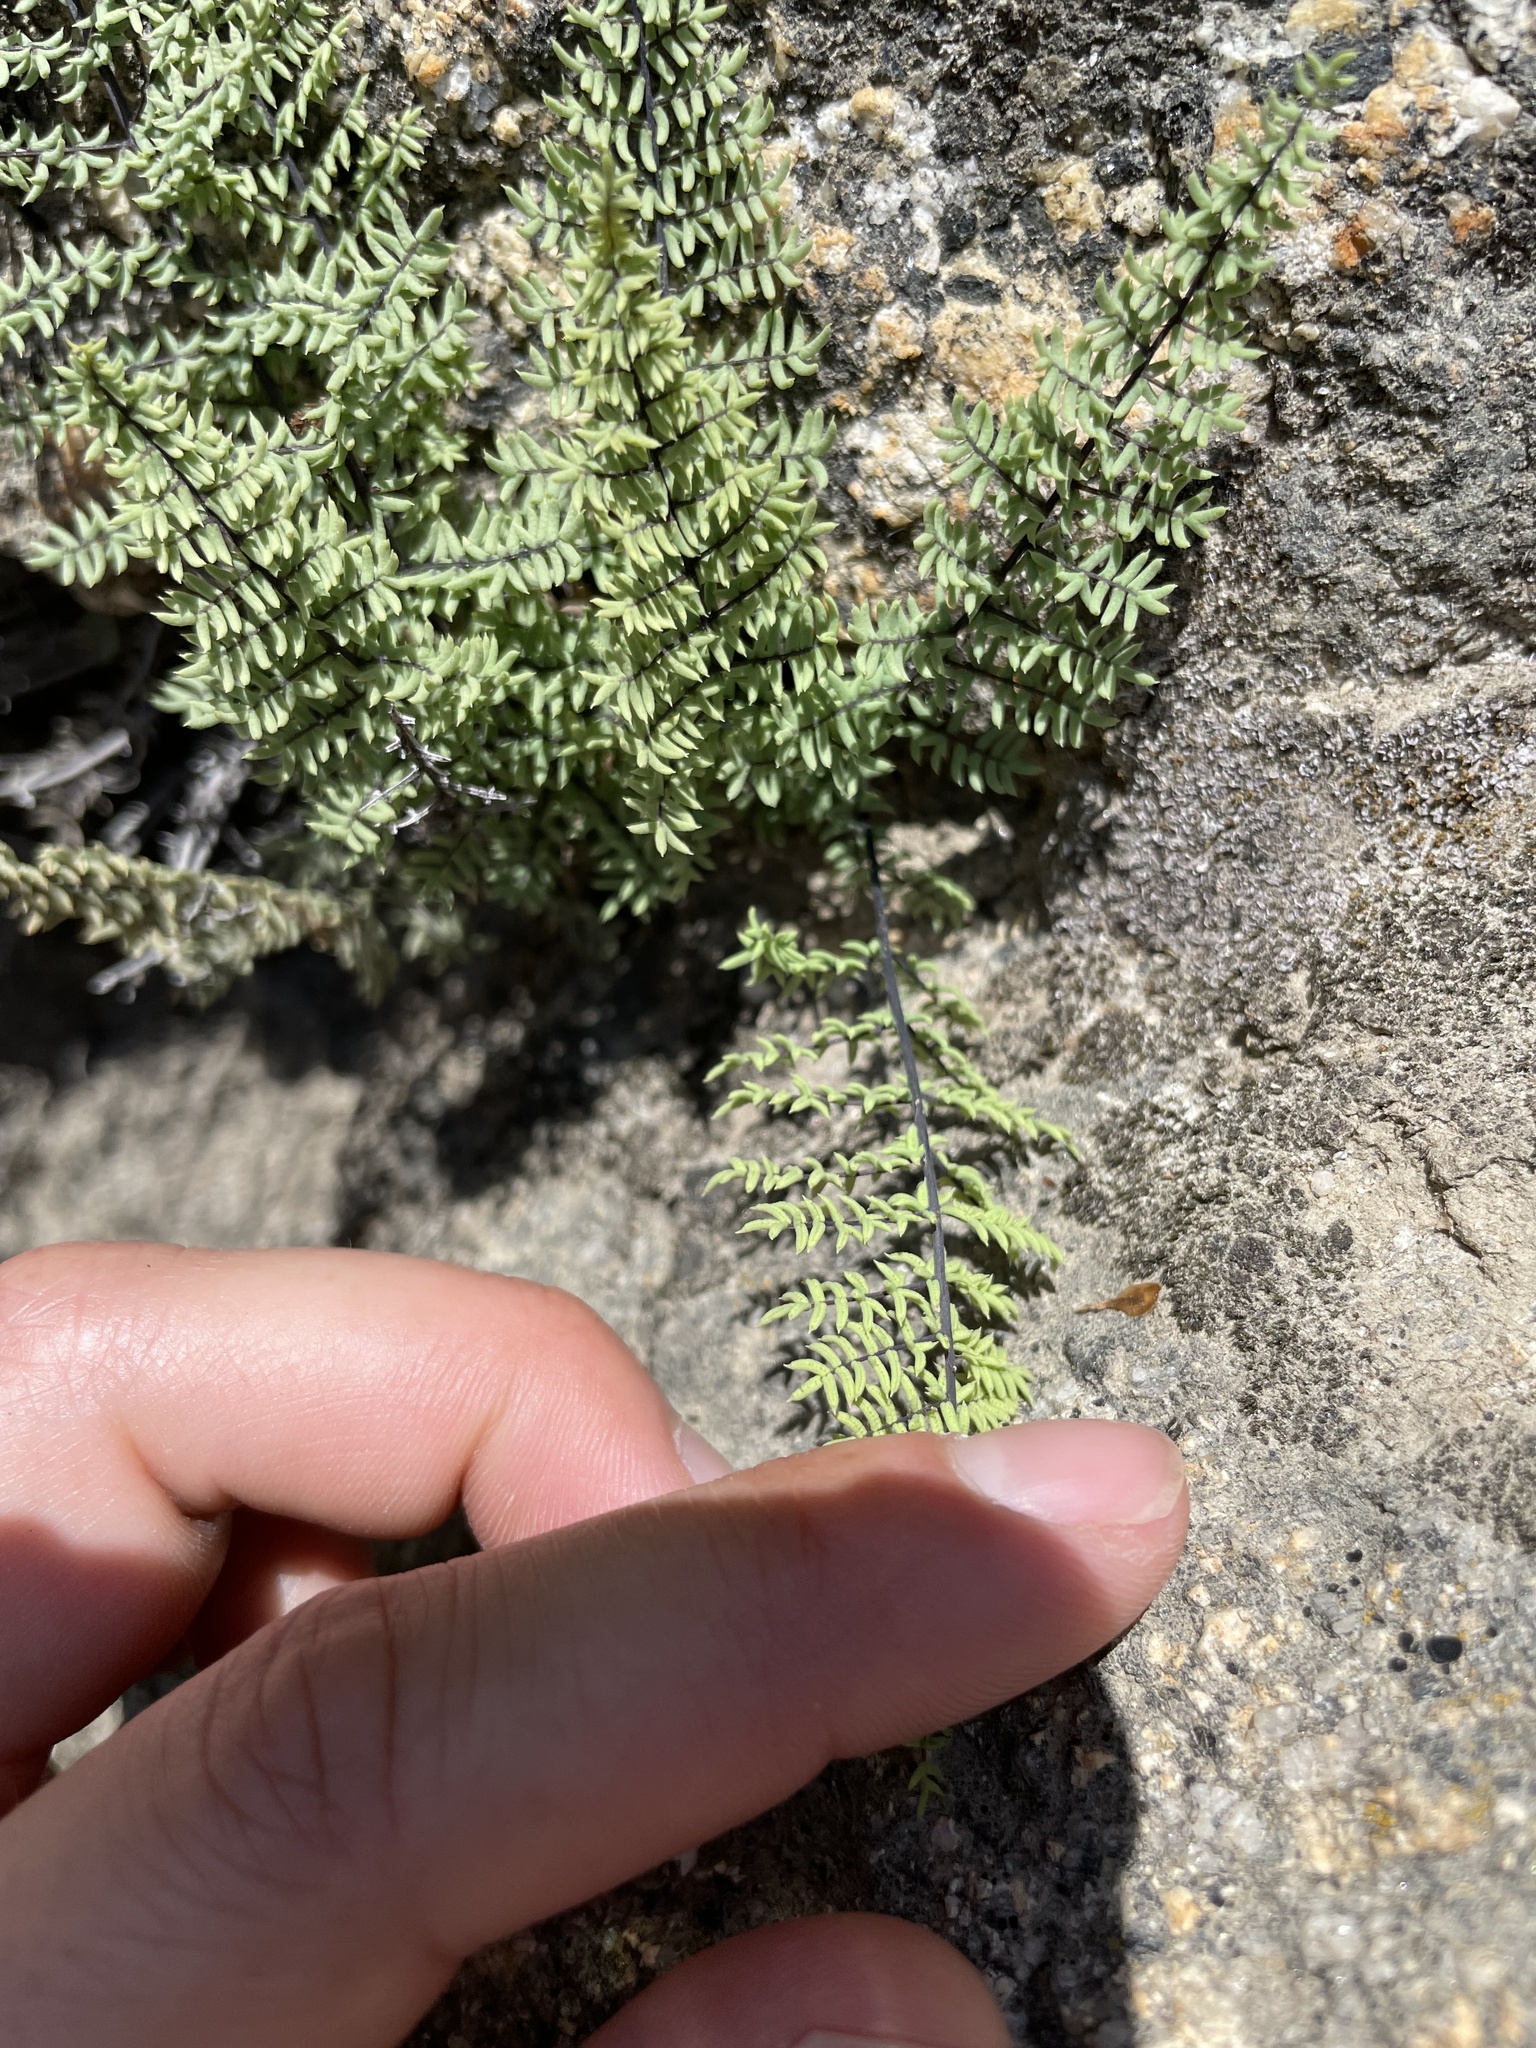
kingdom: Plantae
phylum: Tracheophyta
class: Polypodiopsida
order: Polypodiales
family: Pteridaceae
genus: Pellaea
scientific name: Pellaea mucronata
